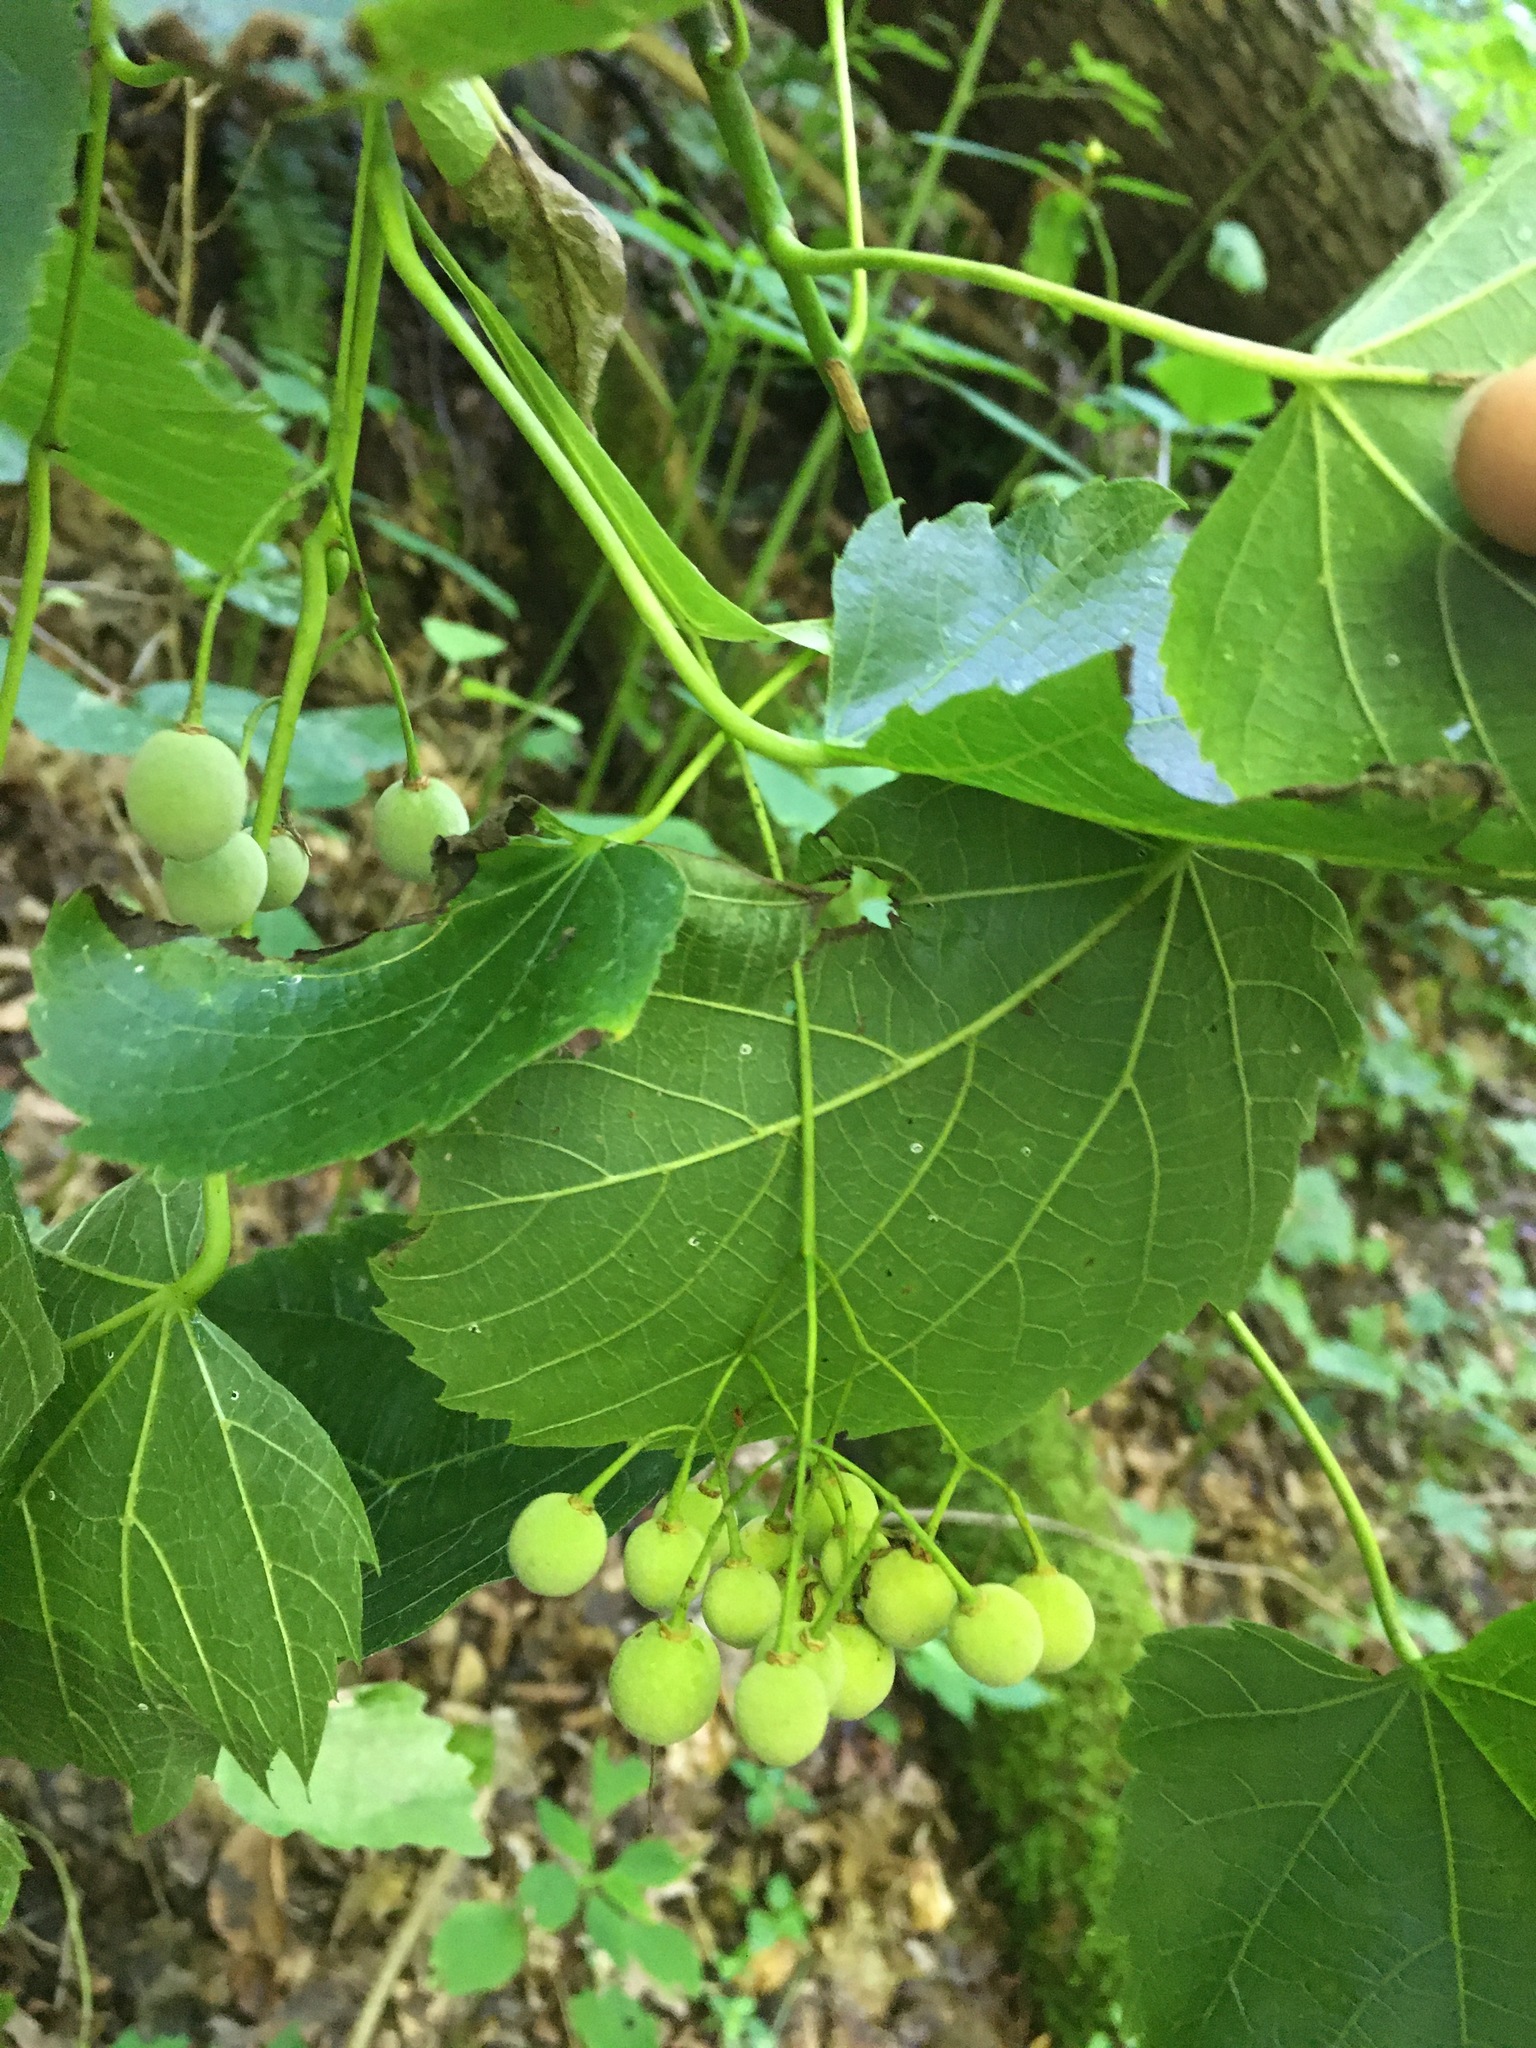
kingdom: Plantae
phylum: Tracheophyta
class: Magnoliopsida
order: Malvales
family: Malvaceae
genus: Tilia
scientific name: Tilia americana
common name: Basswood
